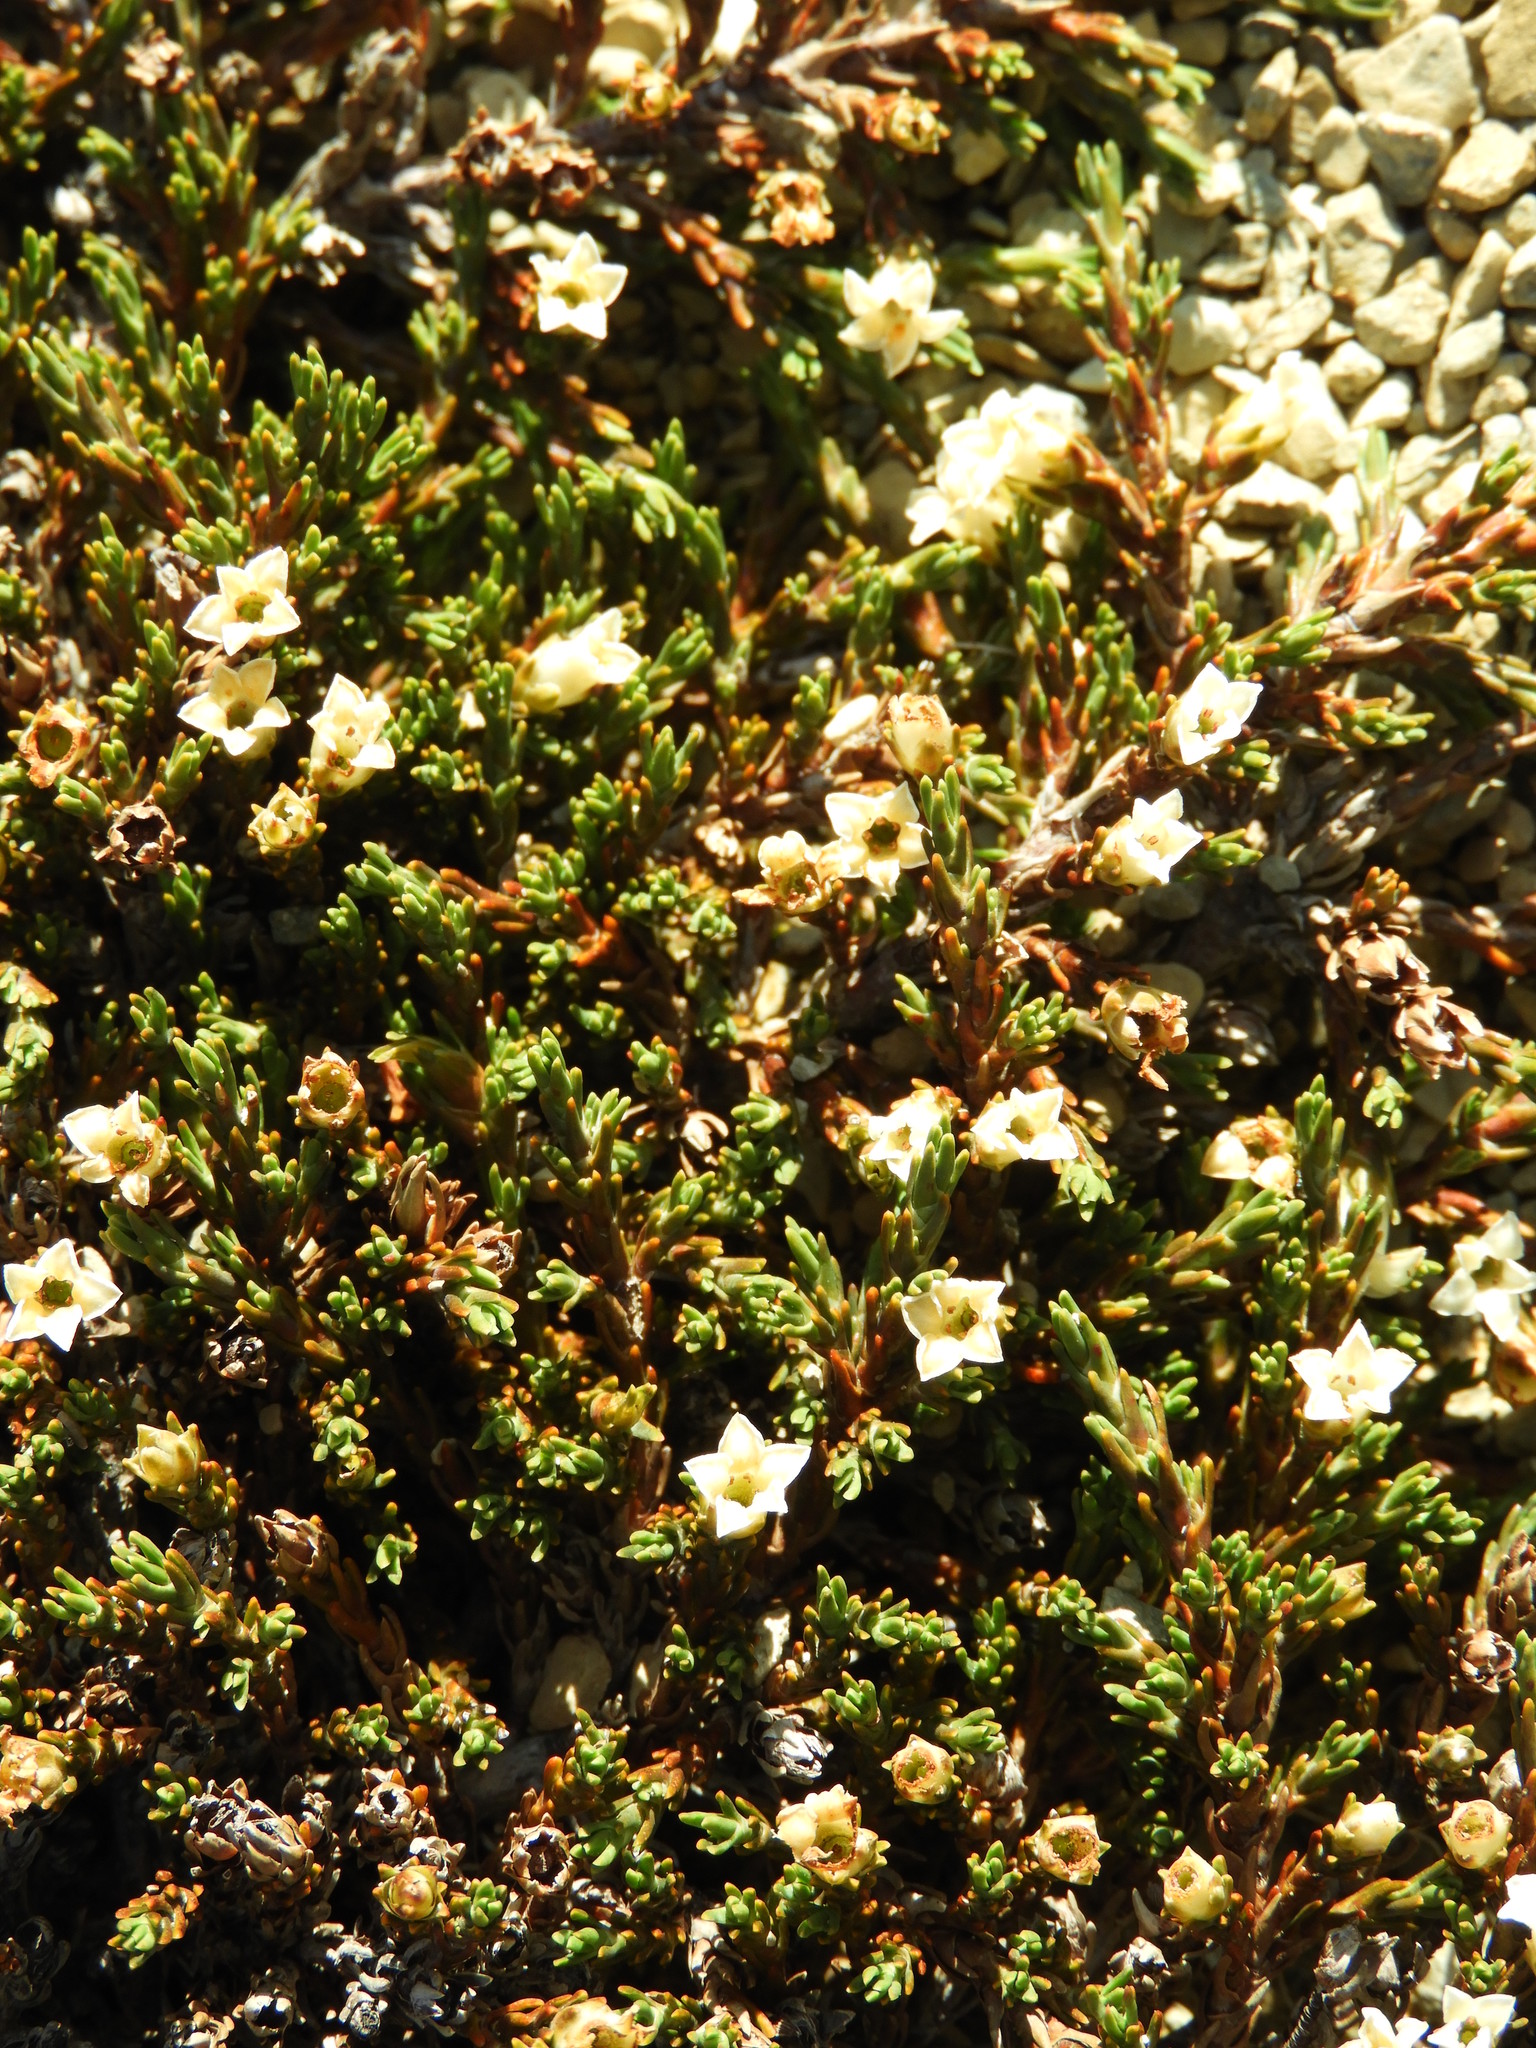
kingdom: Plantae
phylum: Tracheophyta
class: Magnoliopsida
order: Ericales
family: Ericaceae
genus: Dracophyllum
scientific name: Dracophyllum prostratum
